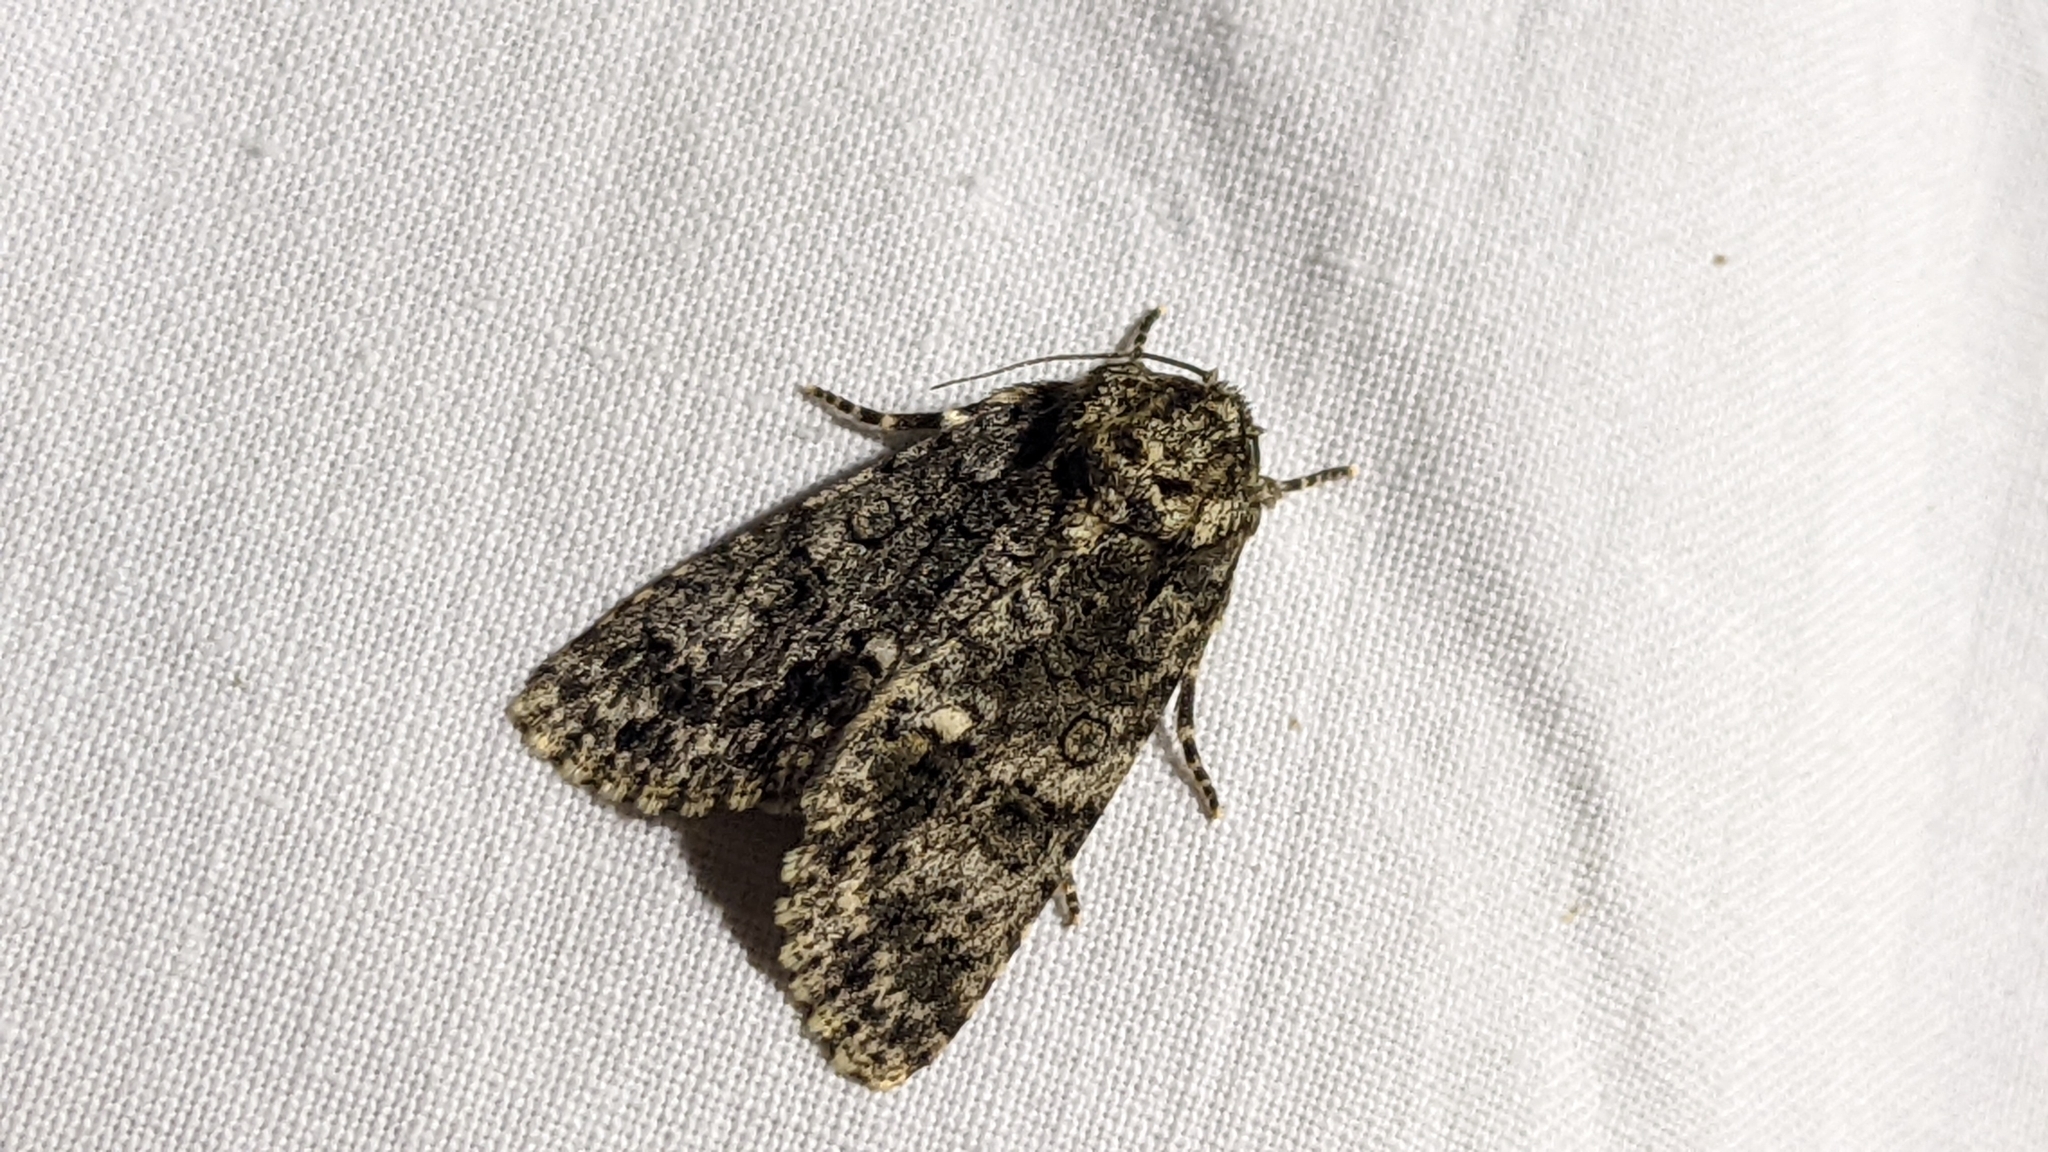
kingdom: Animalia
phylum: Arthropoda
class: Insecta
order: Lepidoptera
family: Noctuidae
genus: Acronicta
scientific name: Acronicta rumicis
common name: Knot grass
